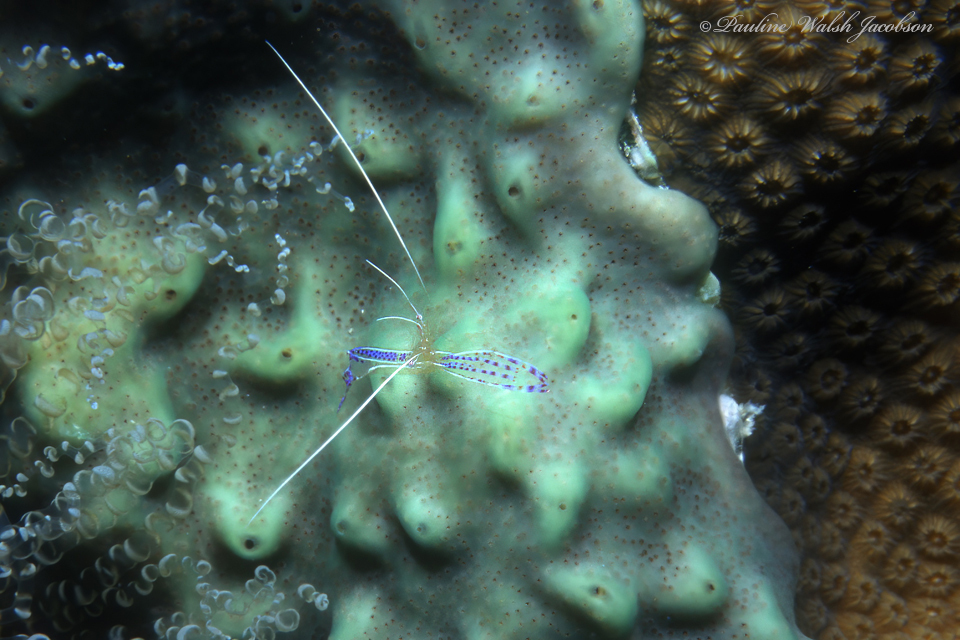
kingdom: Animalia
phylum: Arthropoda
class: Malacostraca
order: Decapoda
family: Palaemonidae
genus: Ancylomenes
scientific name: Ancylomenes pedersoni
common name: Pederson's cleaning shrimp
